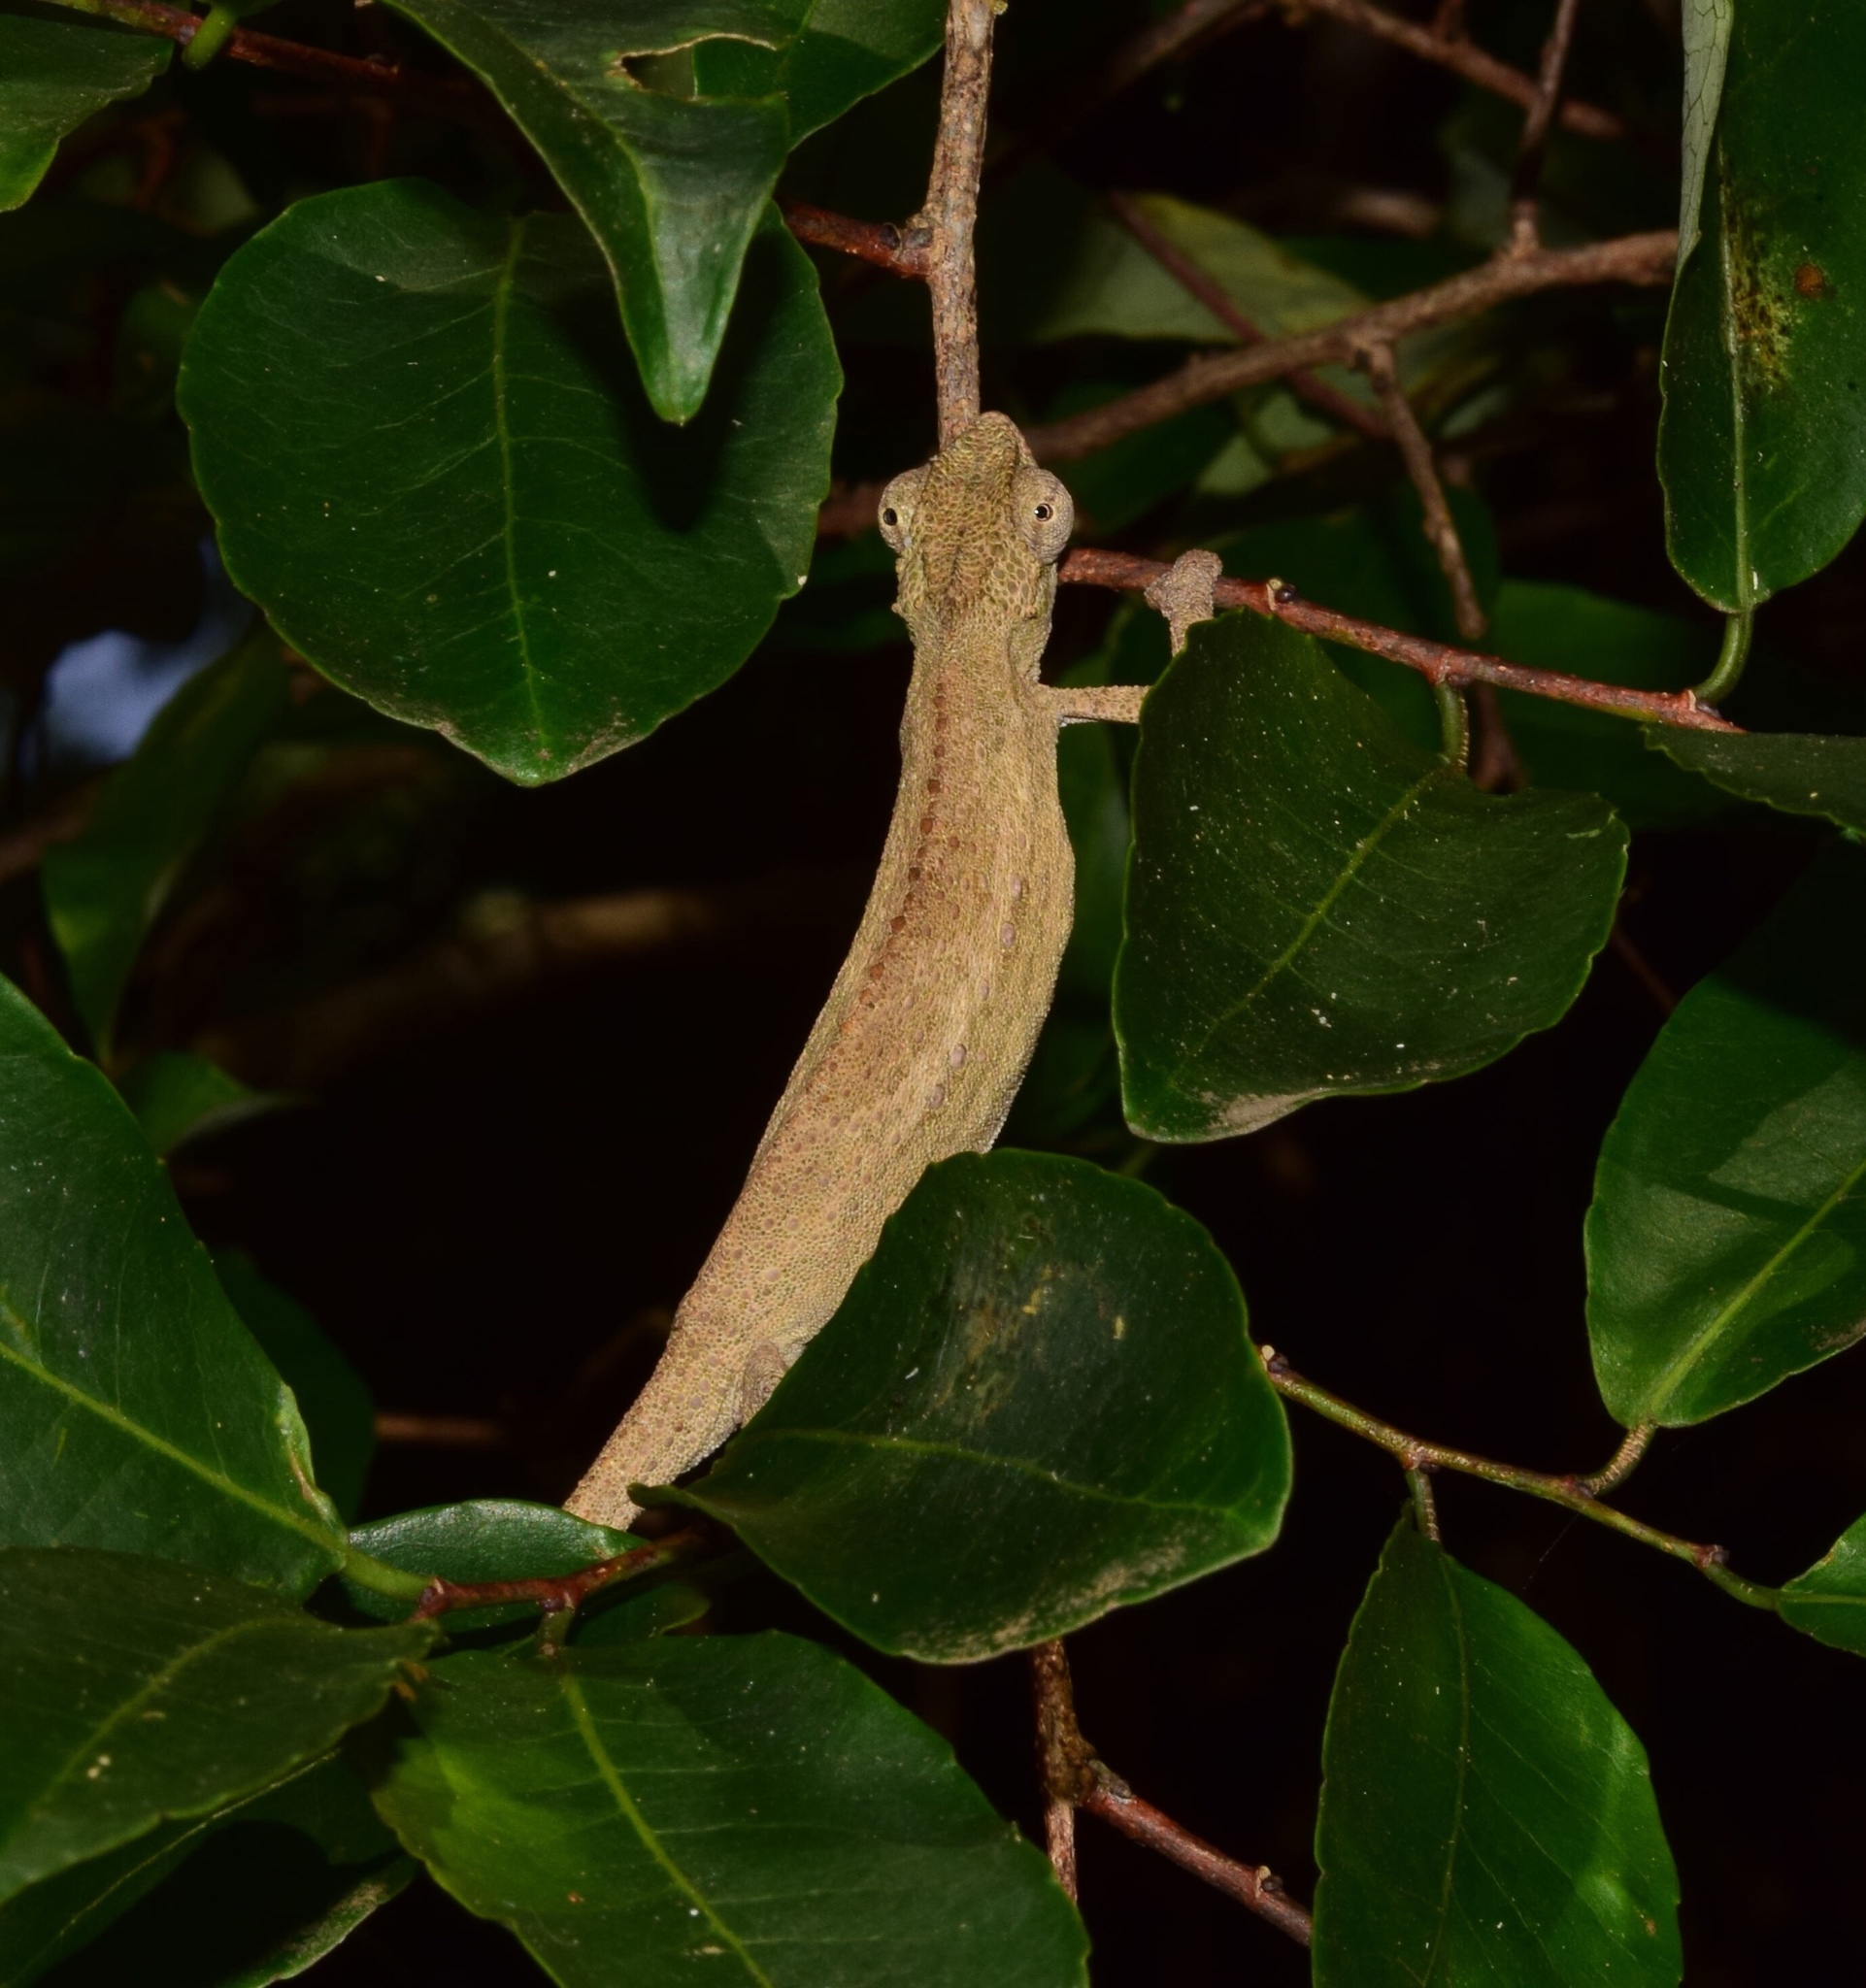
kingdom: Animalia
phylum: Chordata
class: Squamata
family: Chamaeleonidae
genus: Bradypodion
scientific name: Bradypodion melanocephalum
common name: Black-headed dwarf chameleon
